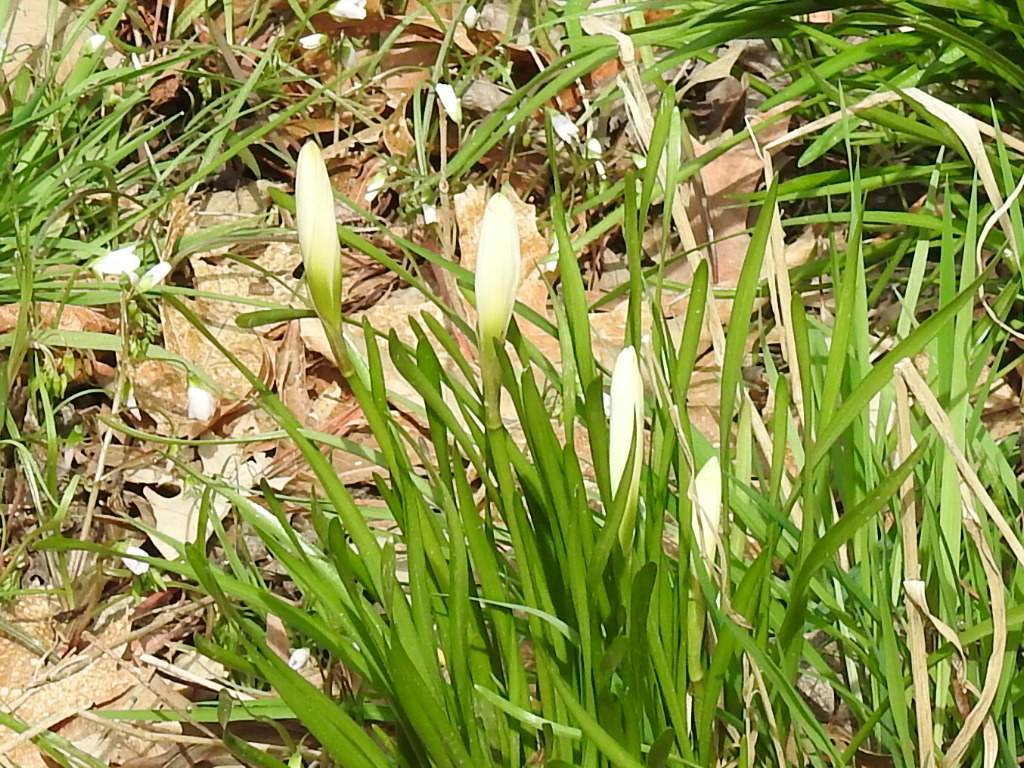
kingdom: Plantae
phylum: Tracheophyta
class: Liliopsida
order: Asparagales
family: Amaryllidaceae
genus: Zephyranthes
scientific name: Zephyranthes atamasco
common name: Atamasco lily
